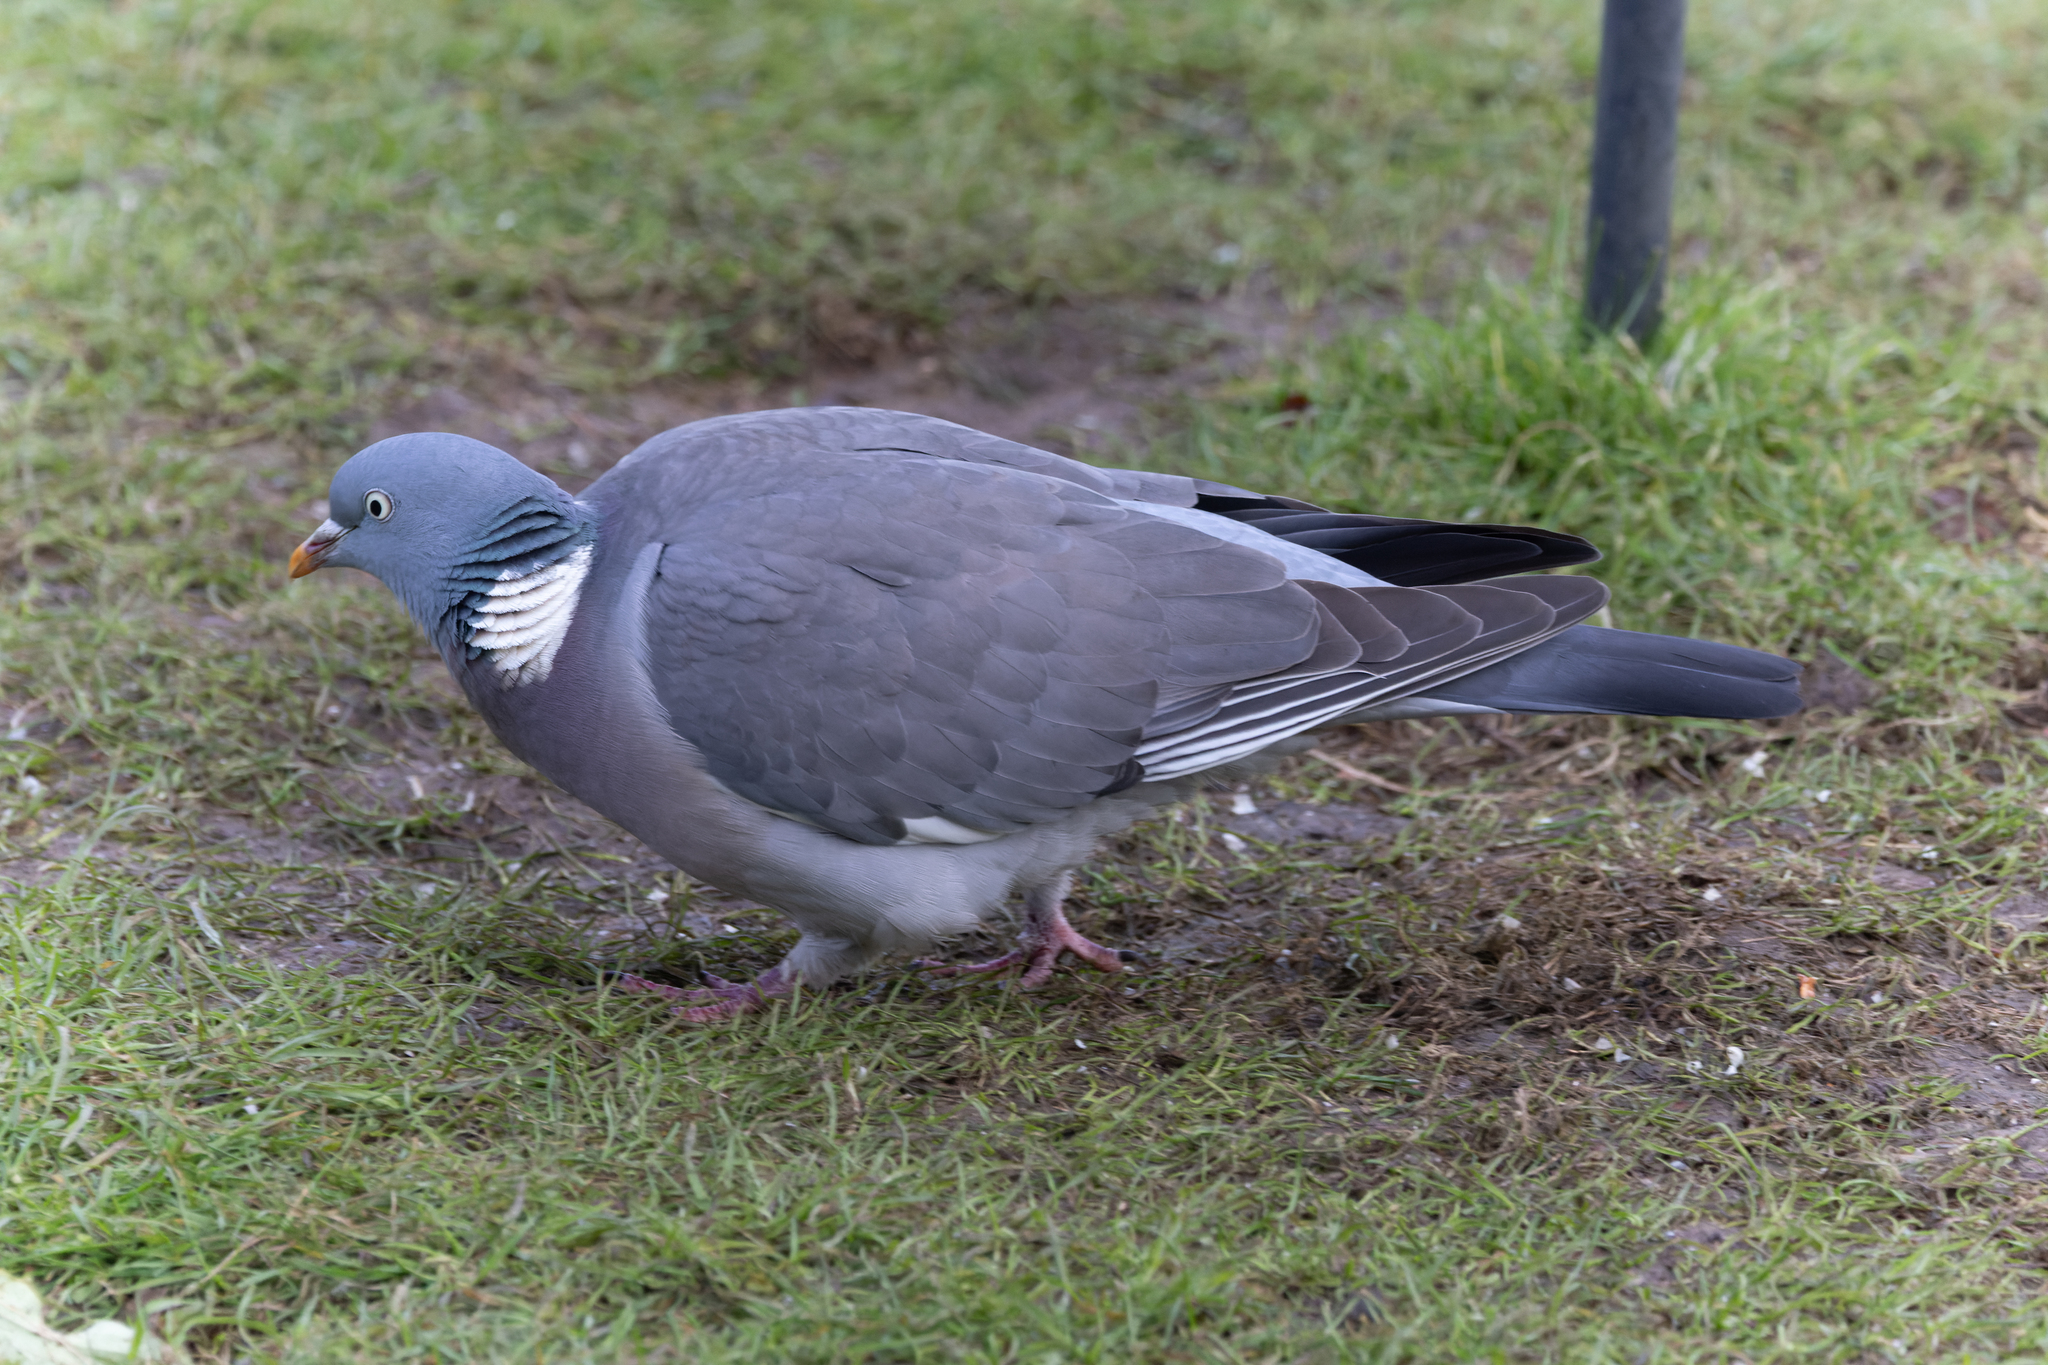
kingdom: Animalia
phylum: Chordata
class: Aves
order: Columbiformes
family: Columbidae
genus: Columba
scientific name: Columba palumbus
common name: Common wood pigeon
